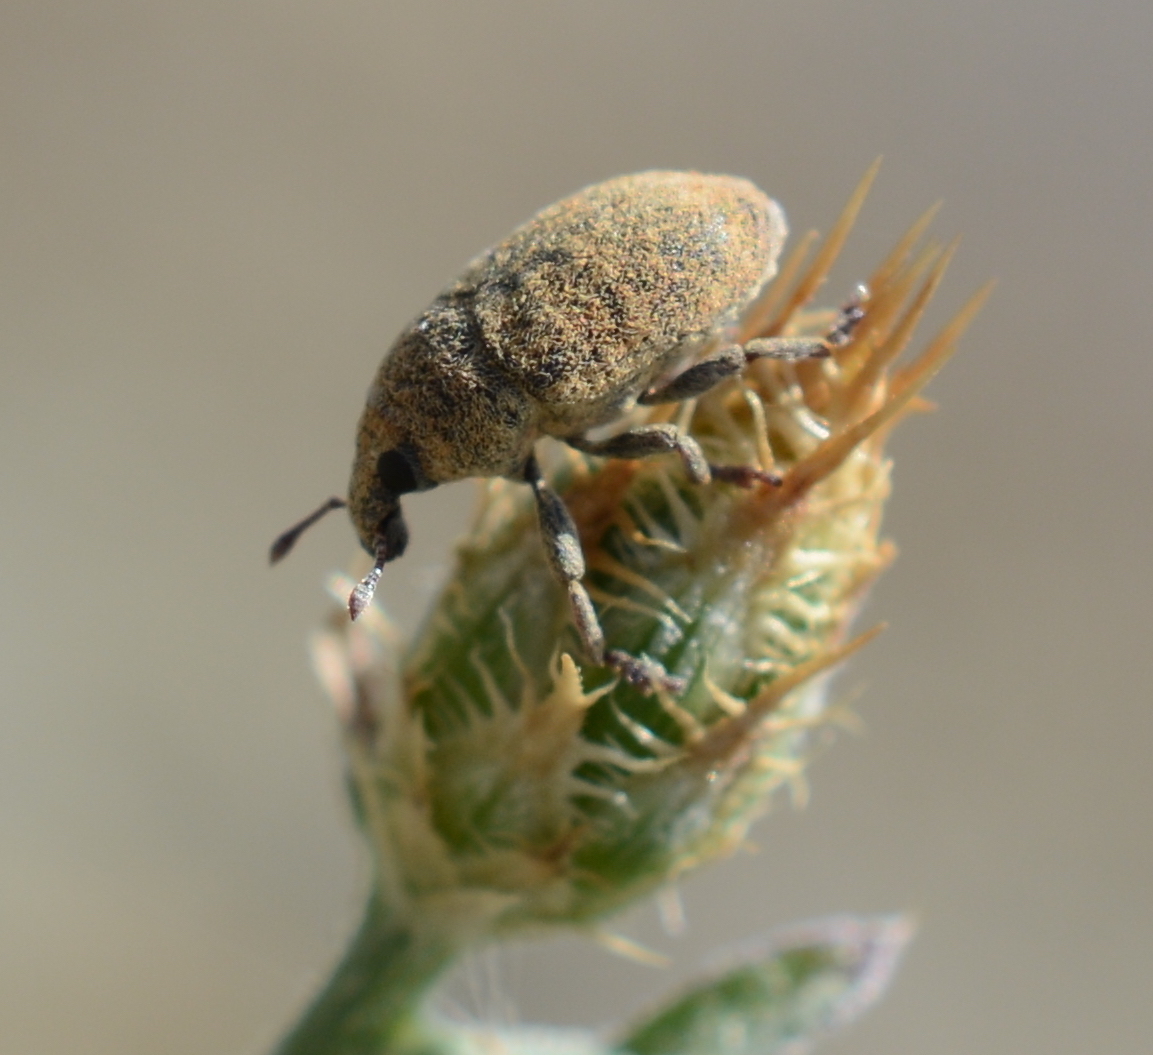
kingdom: Animalia
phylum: Arthropoda
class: Insecta
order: Coleoptera
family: Curculionidae
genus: Larinus
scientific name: Larinus minutus
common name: Weevil
